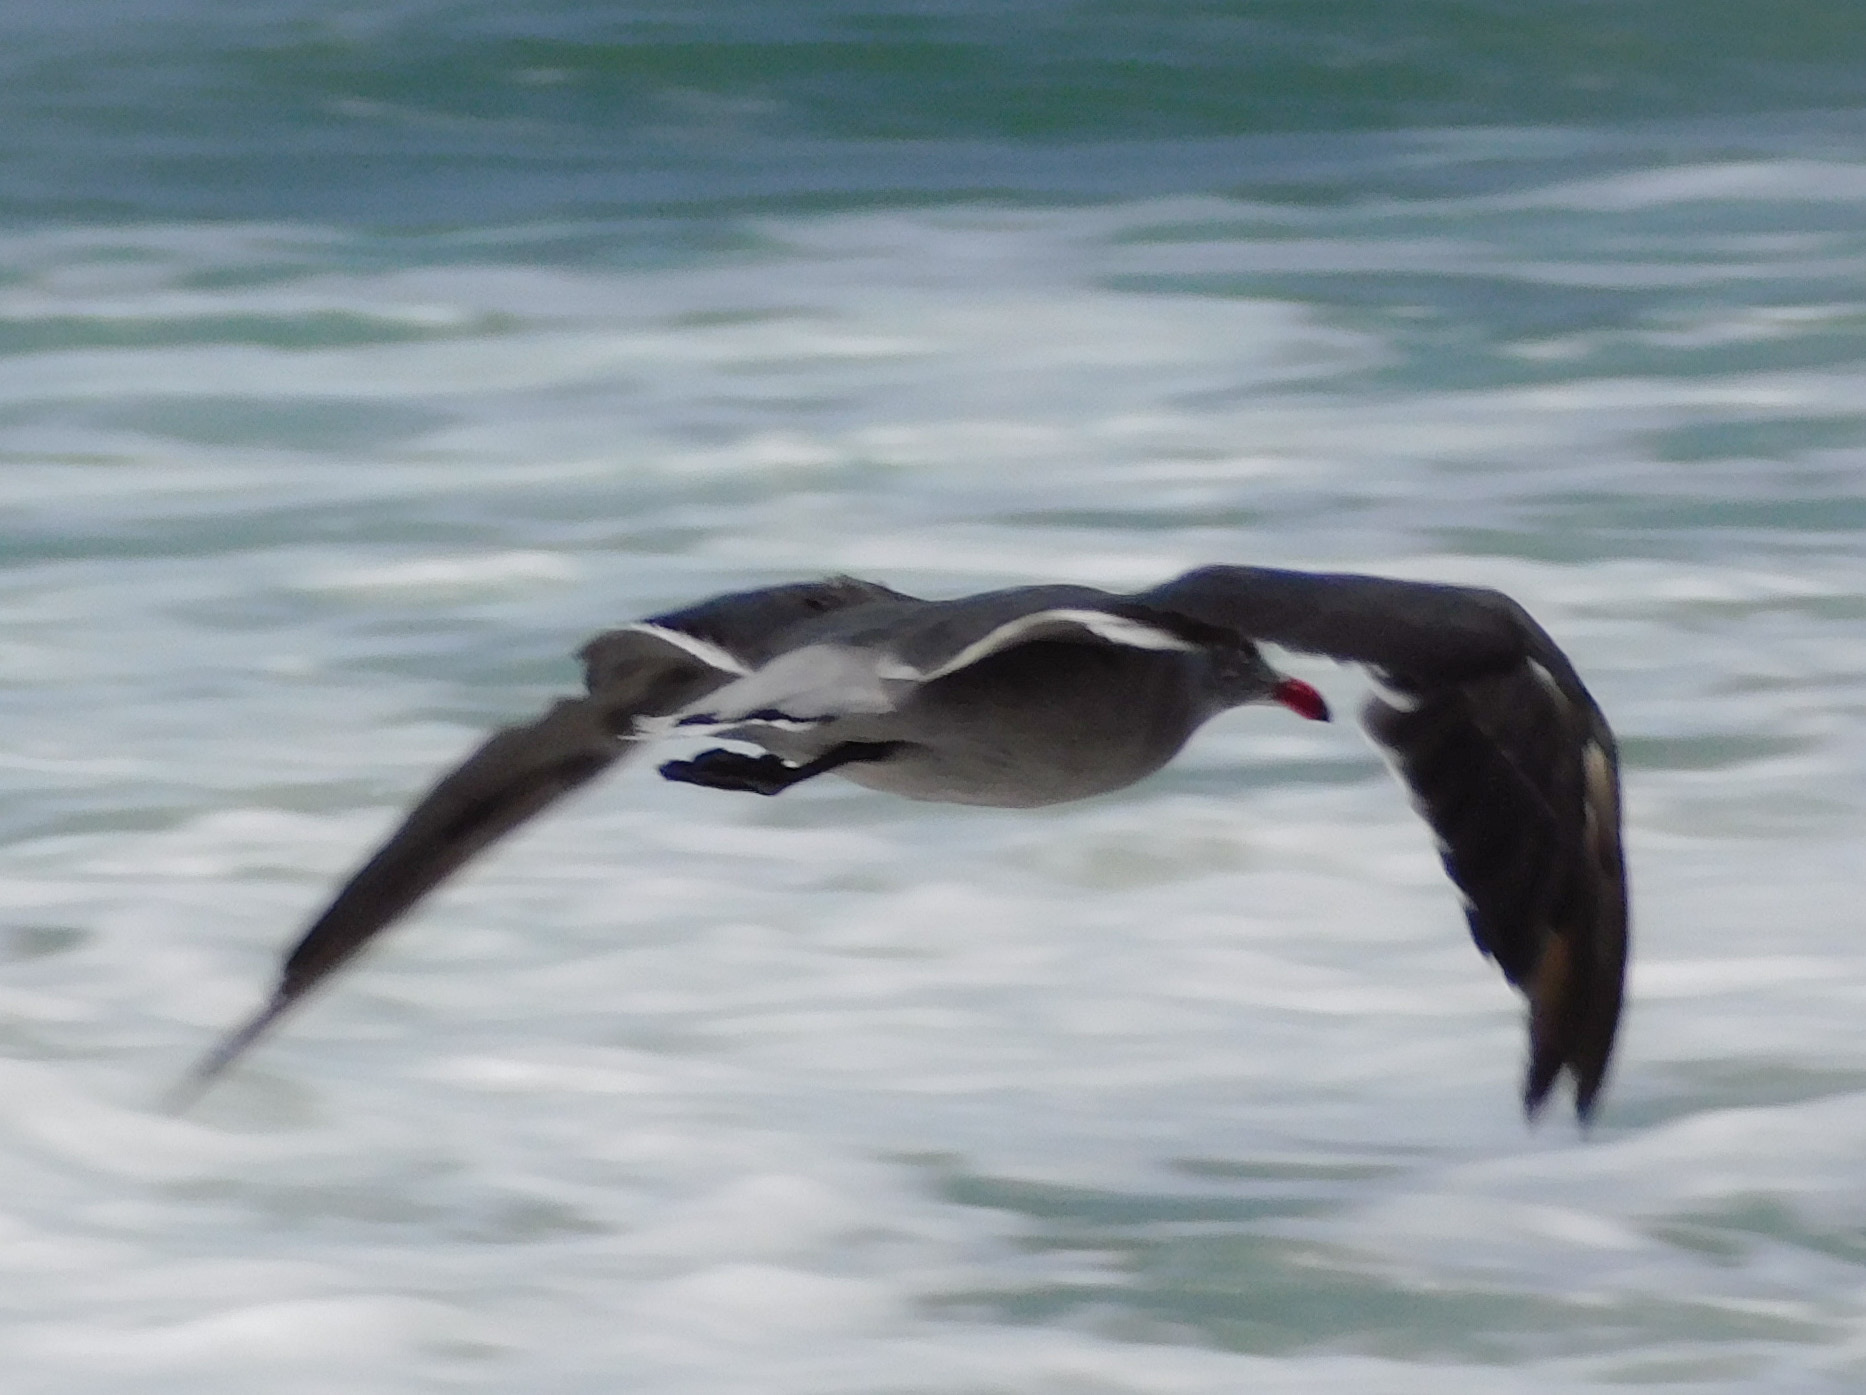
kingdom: Animalia
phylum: Chordata
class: Aves
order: Charadriiformes
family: Laridae
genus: Larus
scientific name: Larus heermanni
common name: Heermann's gull
